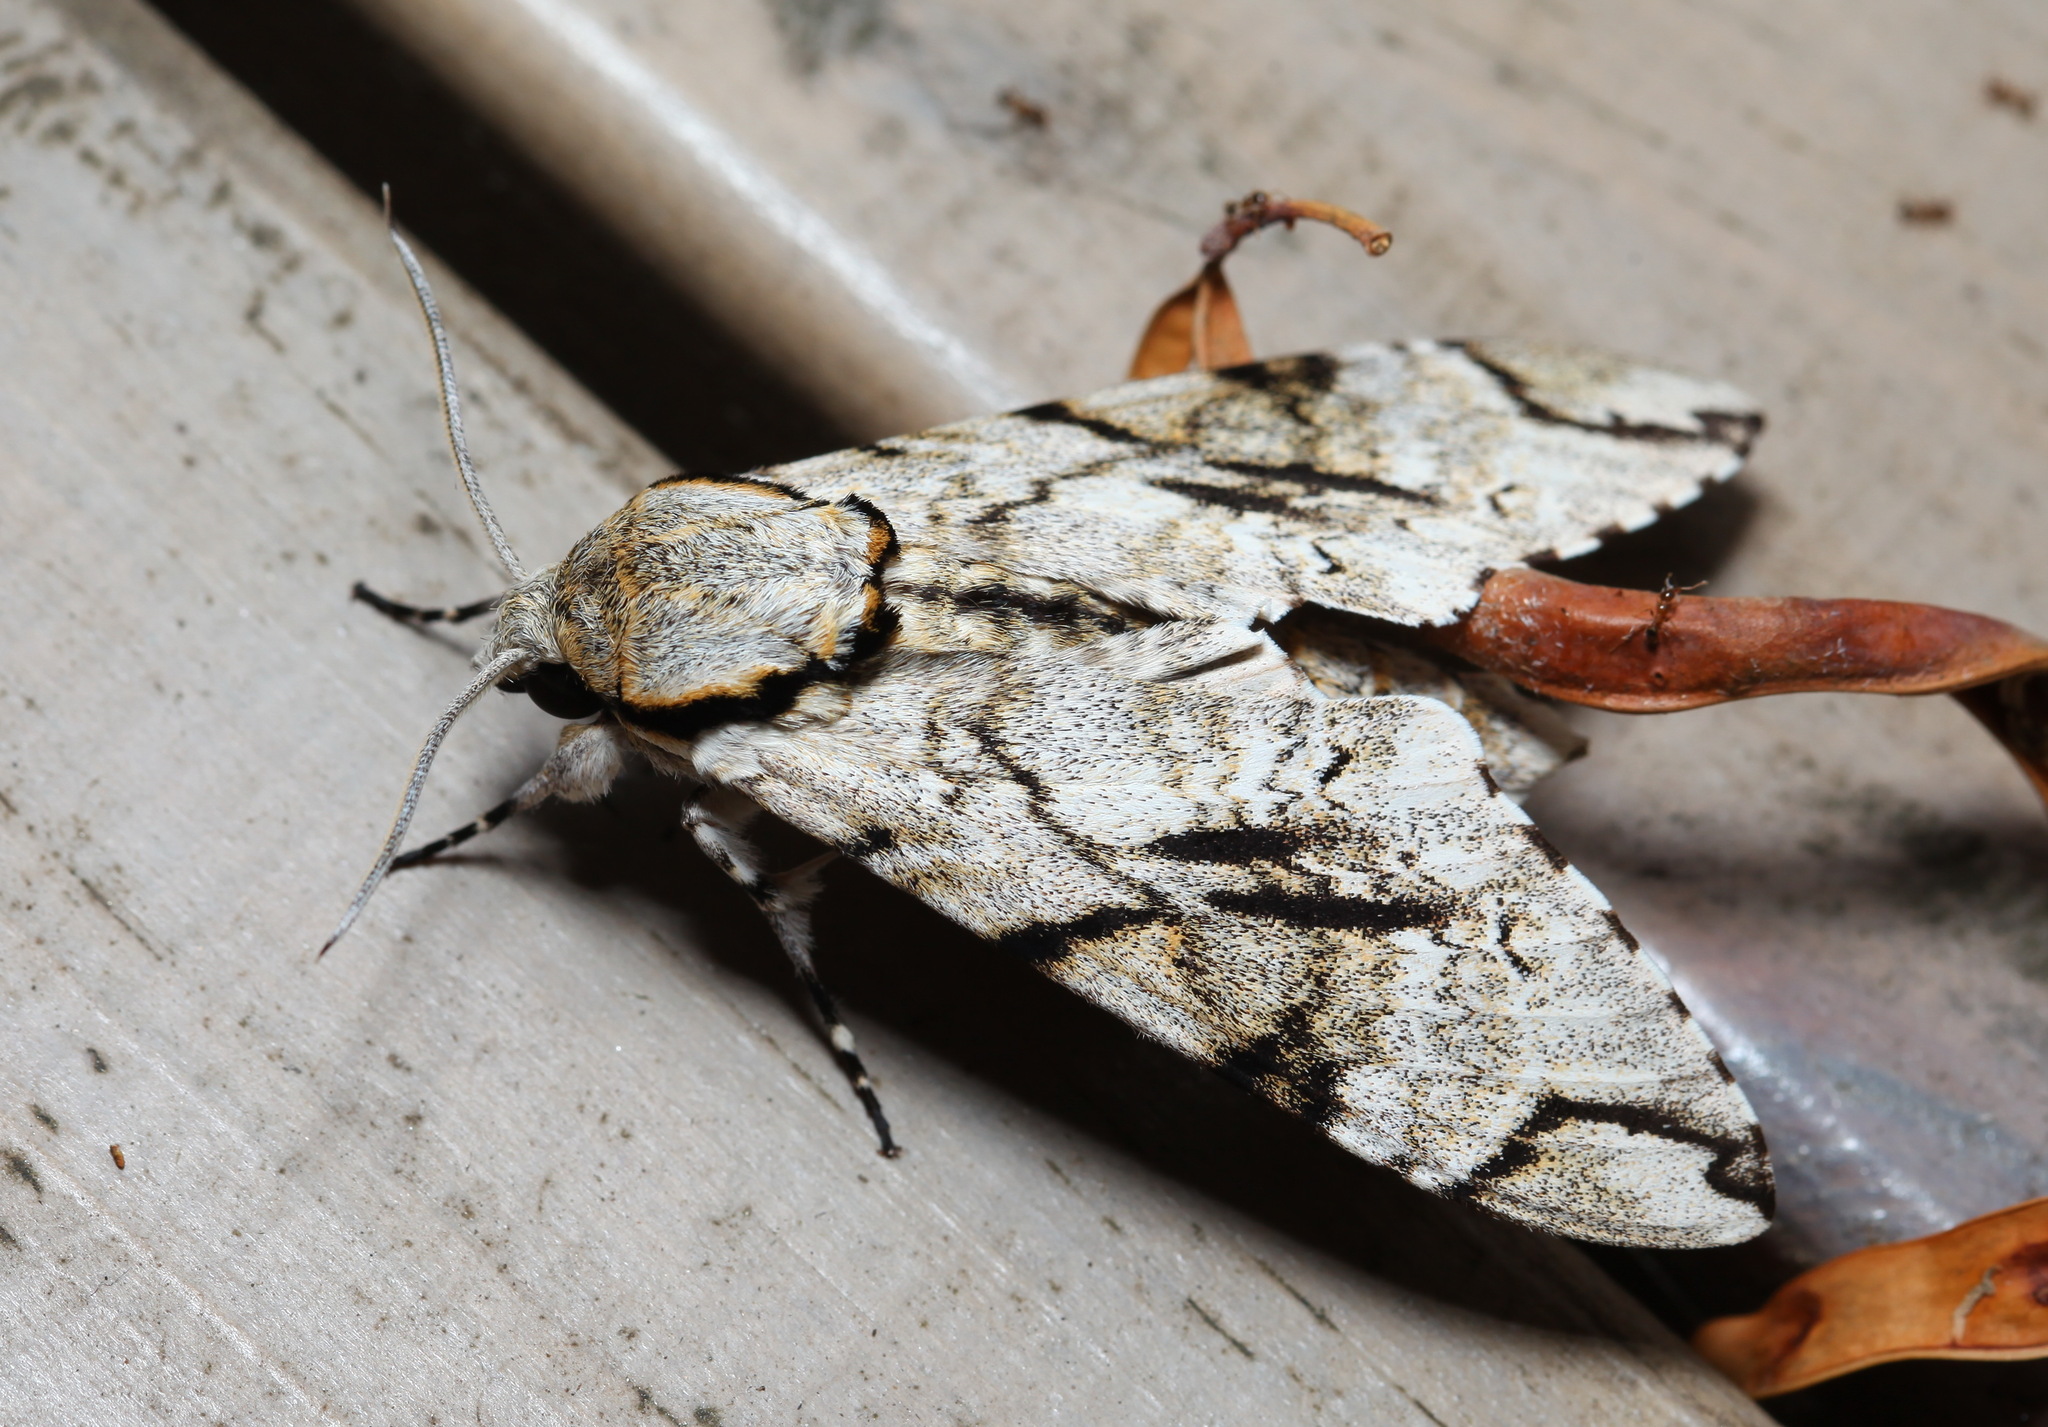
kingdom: Animalia
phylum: Arthropoda
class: Insecta
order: Lepidoptera
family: Sphingidae
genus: Macropoliana
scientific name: Macropoliana gessi
